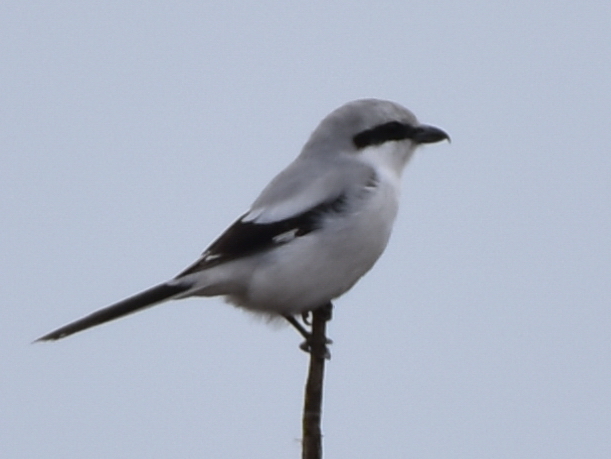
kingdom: Animalia
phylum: Chordata
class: Aves
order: Passeriformes
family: Laniidae
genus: Lanius
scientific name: Lanius excubitor
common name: Great grey shrike
